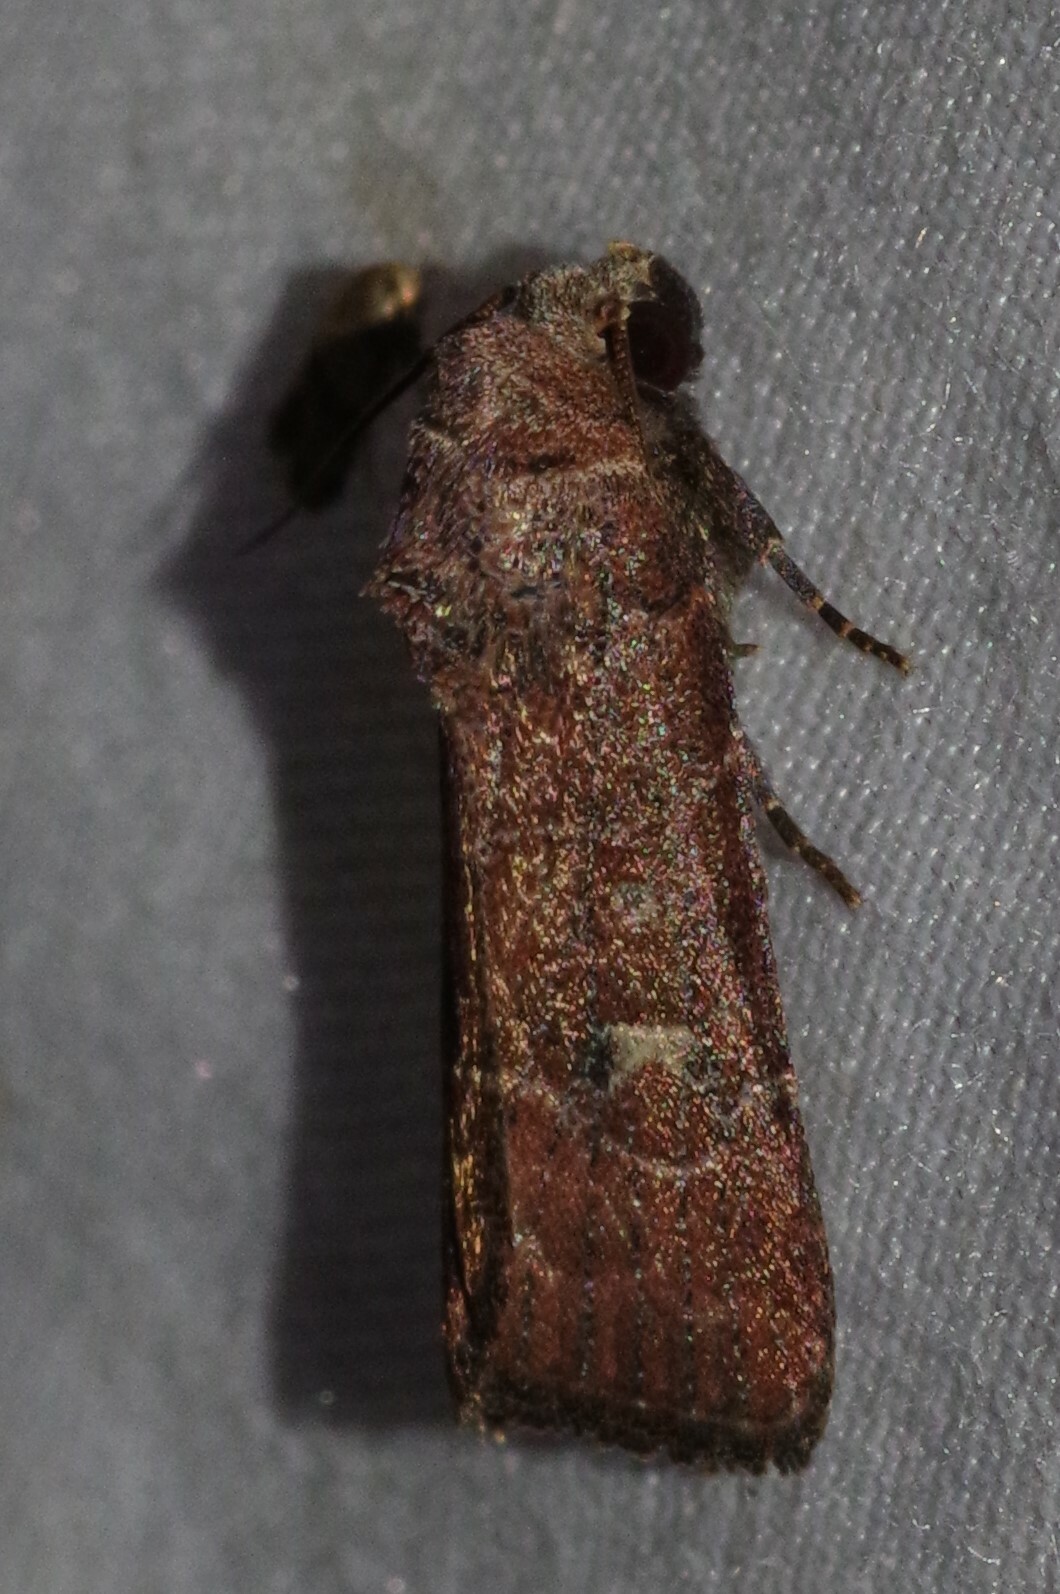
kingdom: Animalia
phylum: Arthropoda
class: Insecta
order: Lepidoptera
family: Noctuidae
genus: Elaphria
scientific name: Elaphria grata
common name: Grateful midget moth
